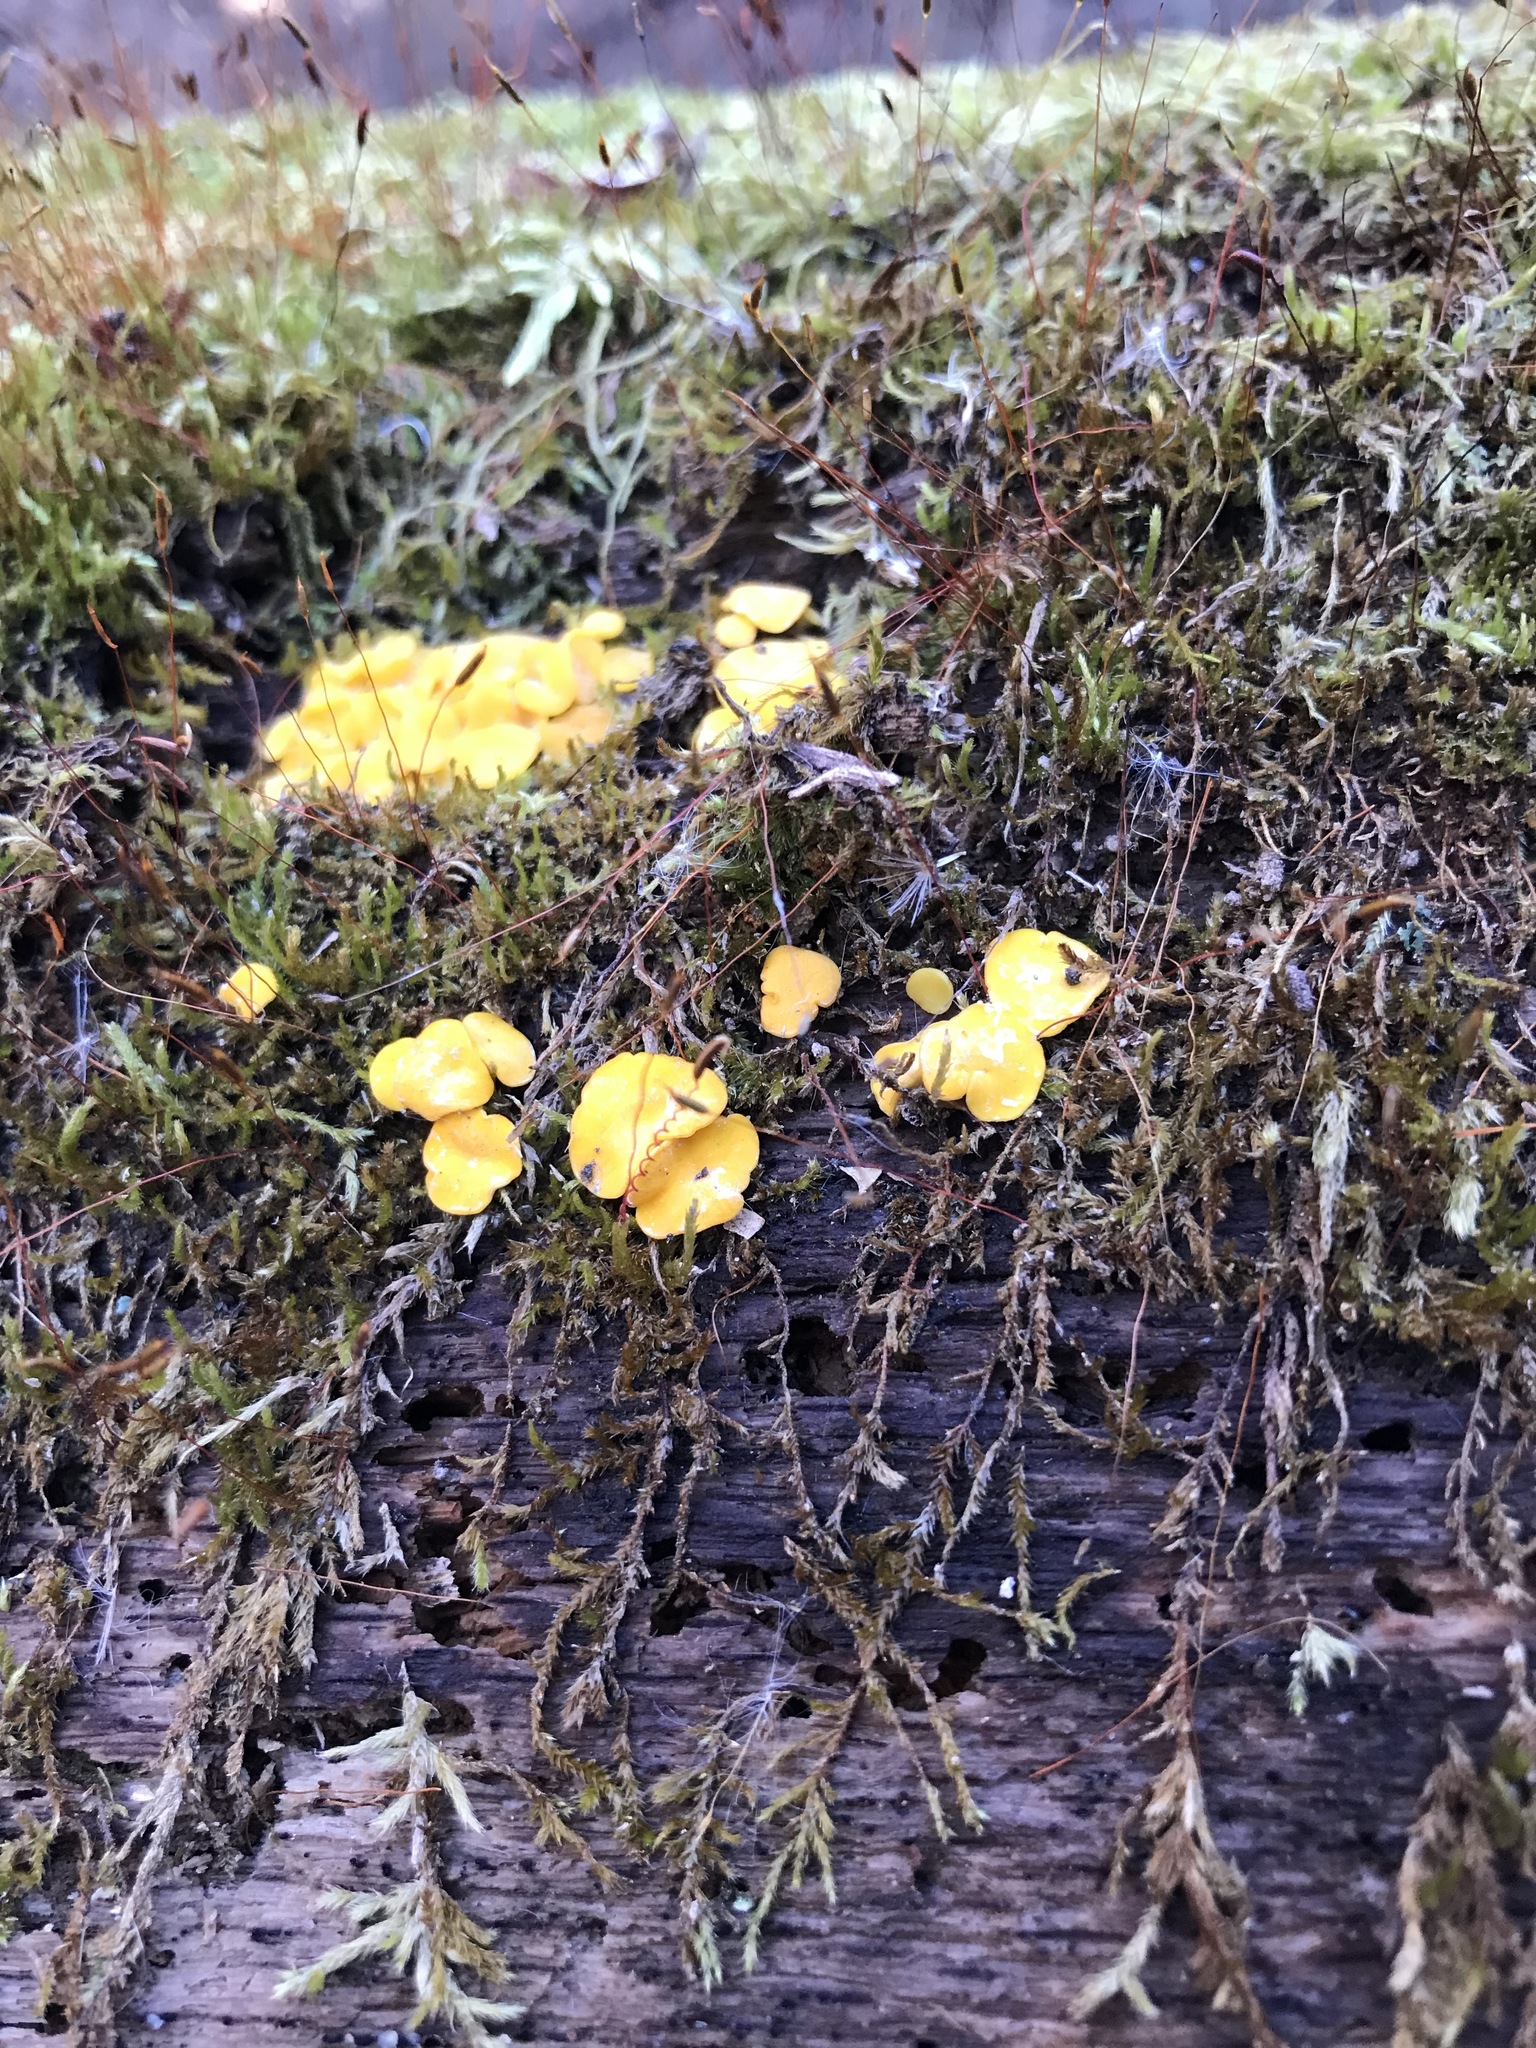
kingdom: Fungi
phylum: Ascomycota
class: Leotiomycetes
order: Helotiales
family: Pezizellaceae
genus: Calycina
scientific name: Calycina citrina
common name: Yellow fairy cups
